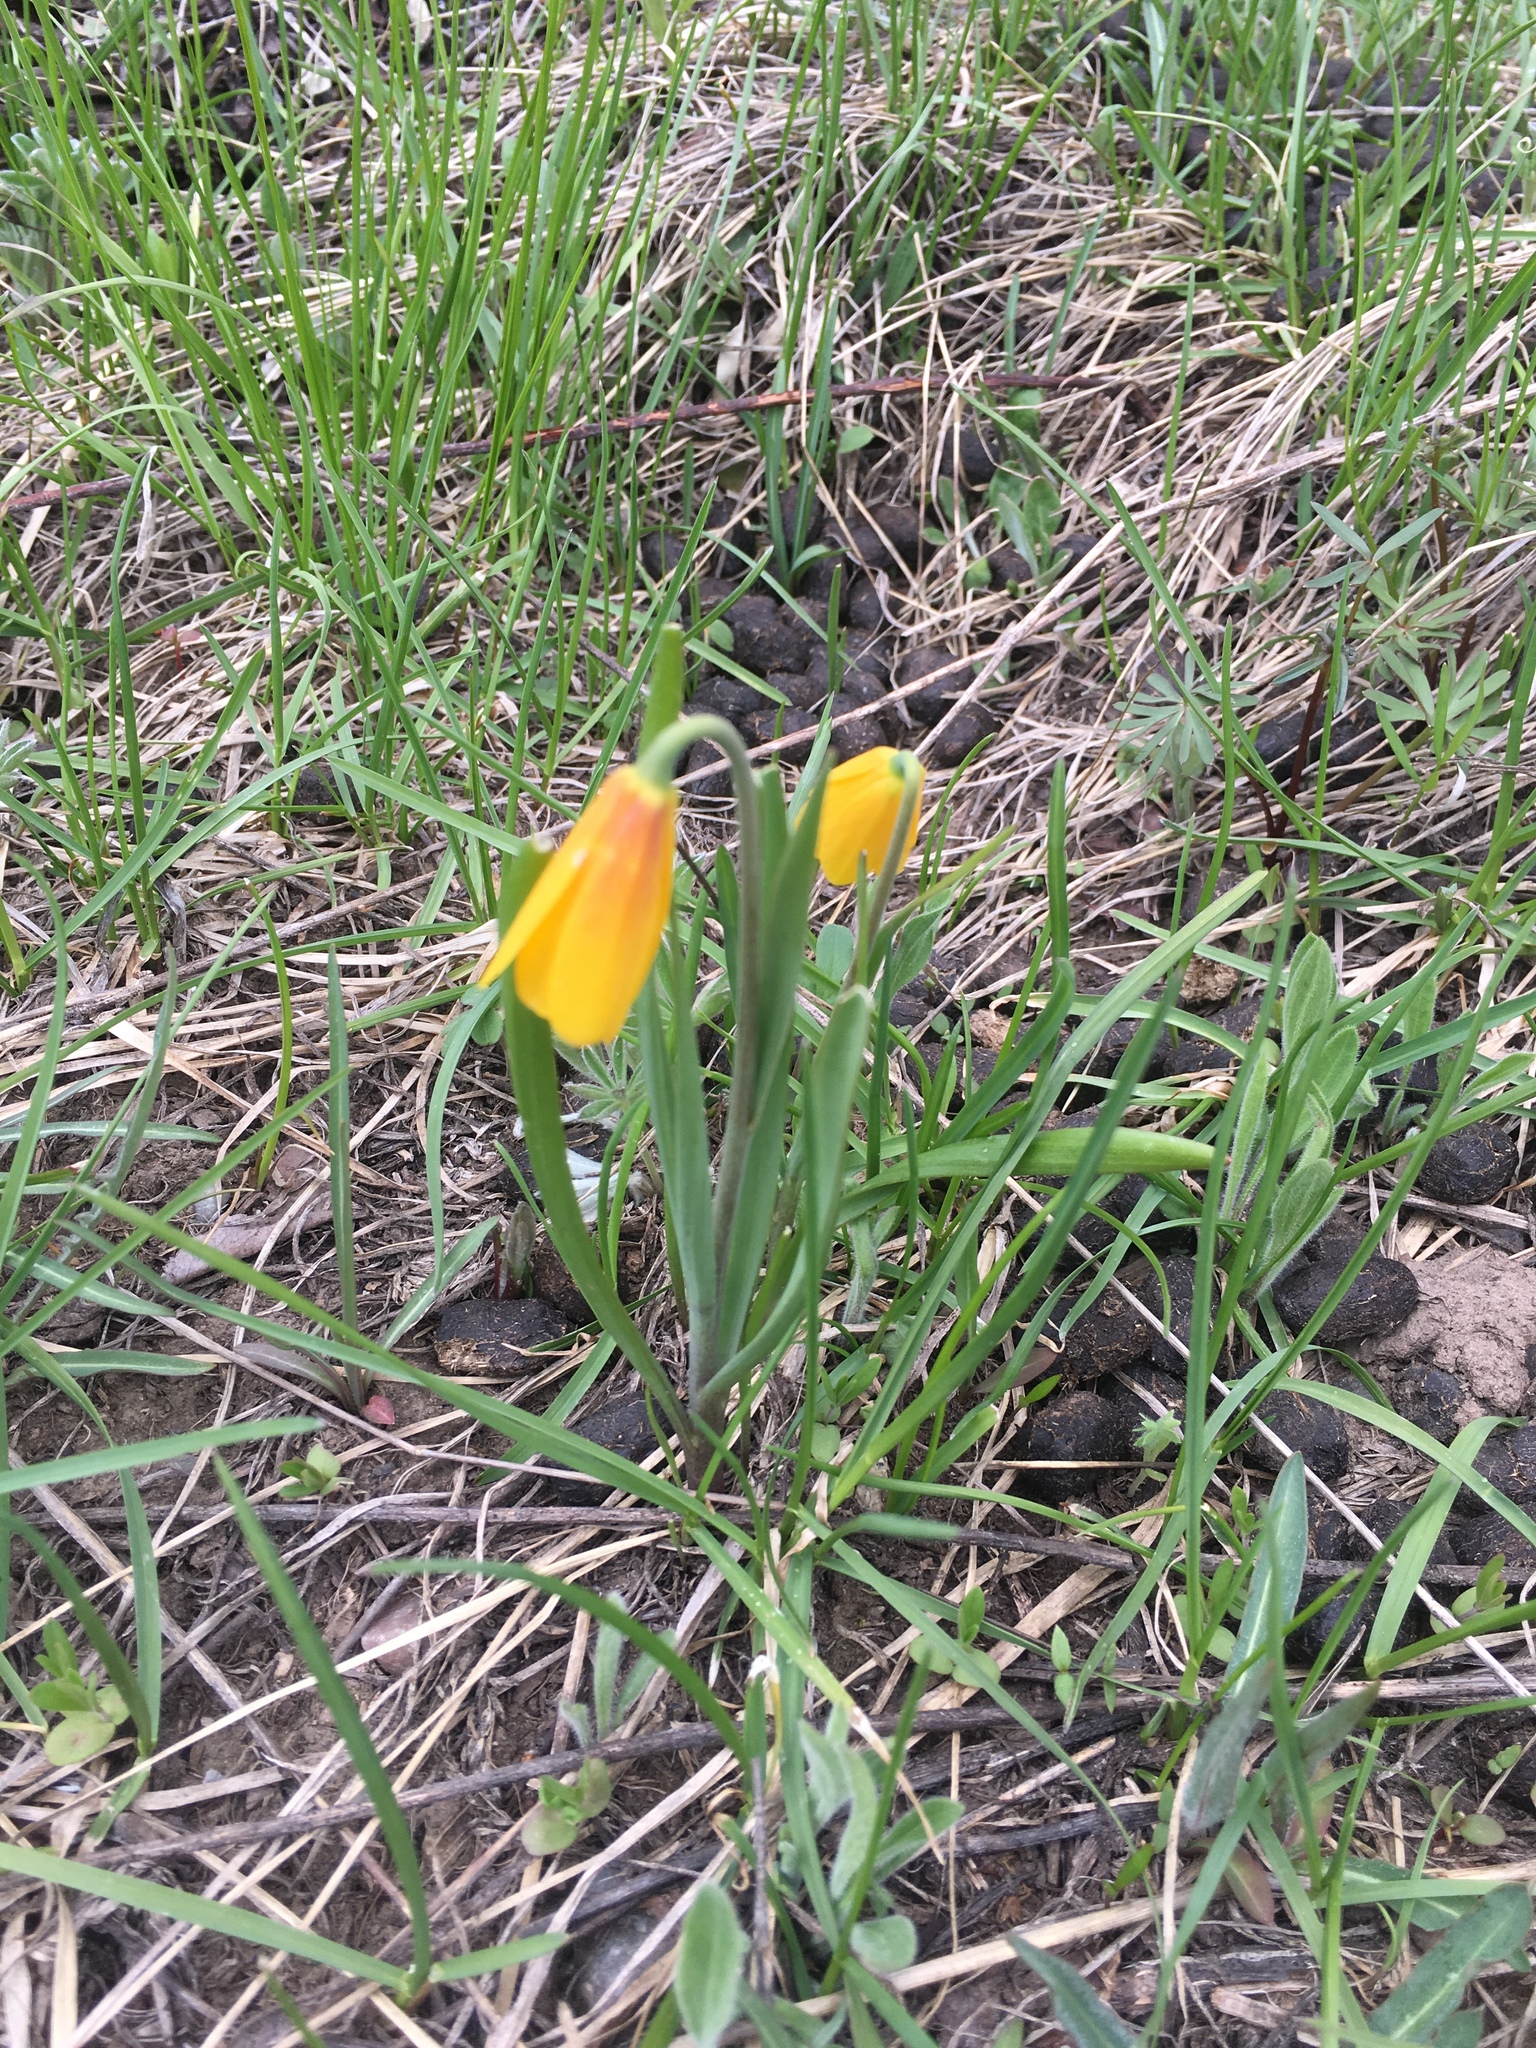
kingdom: Plantae
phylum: Tracheophyta
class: Liliopsida
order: Liliales
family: Liliaceae
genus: Fritillaria
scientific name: Fritillaria pudica
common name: Yellow fritillary
